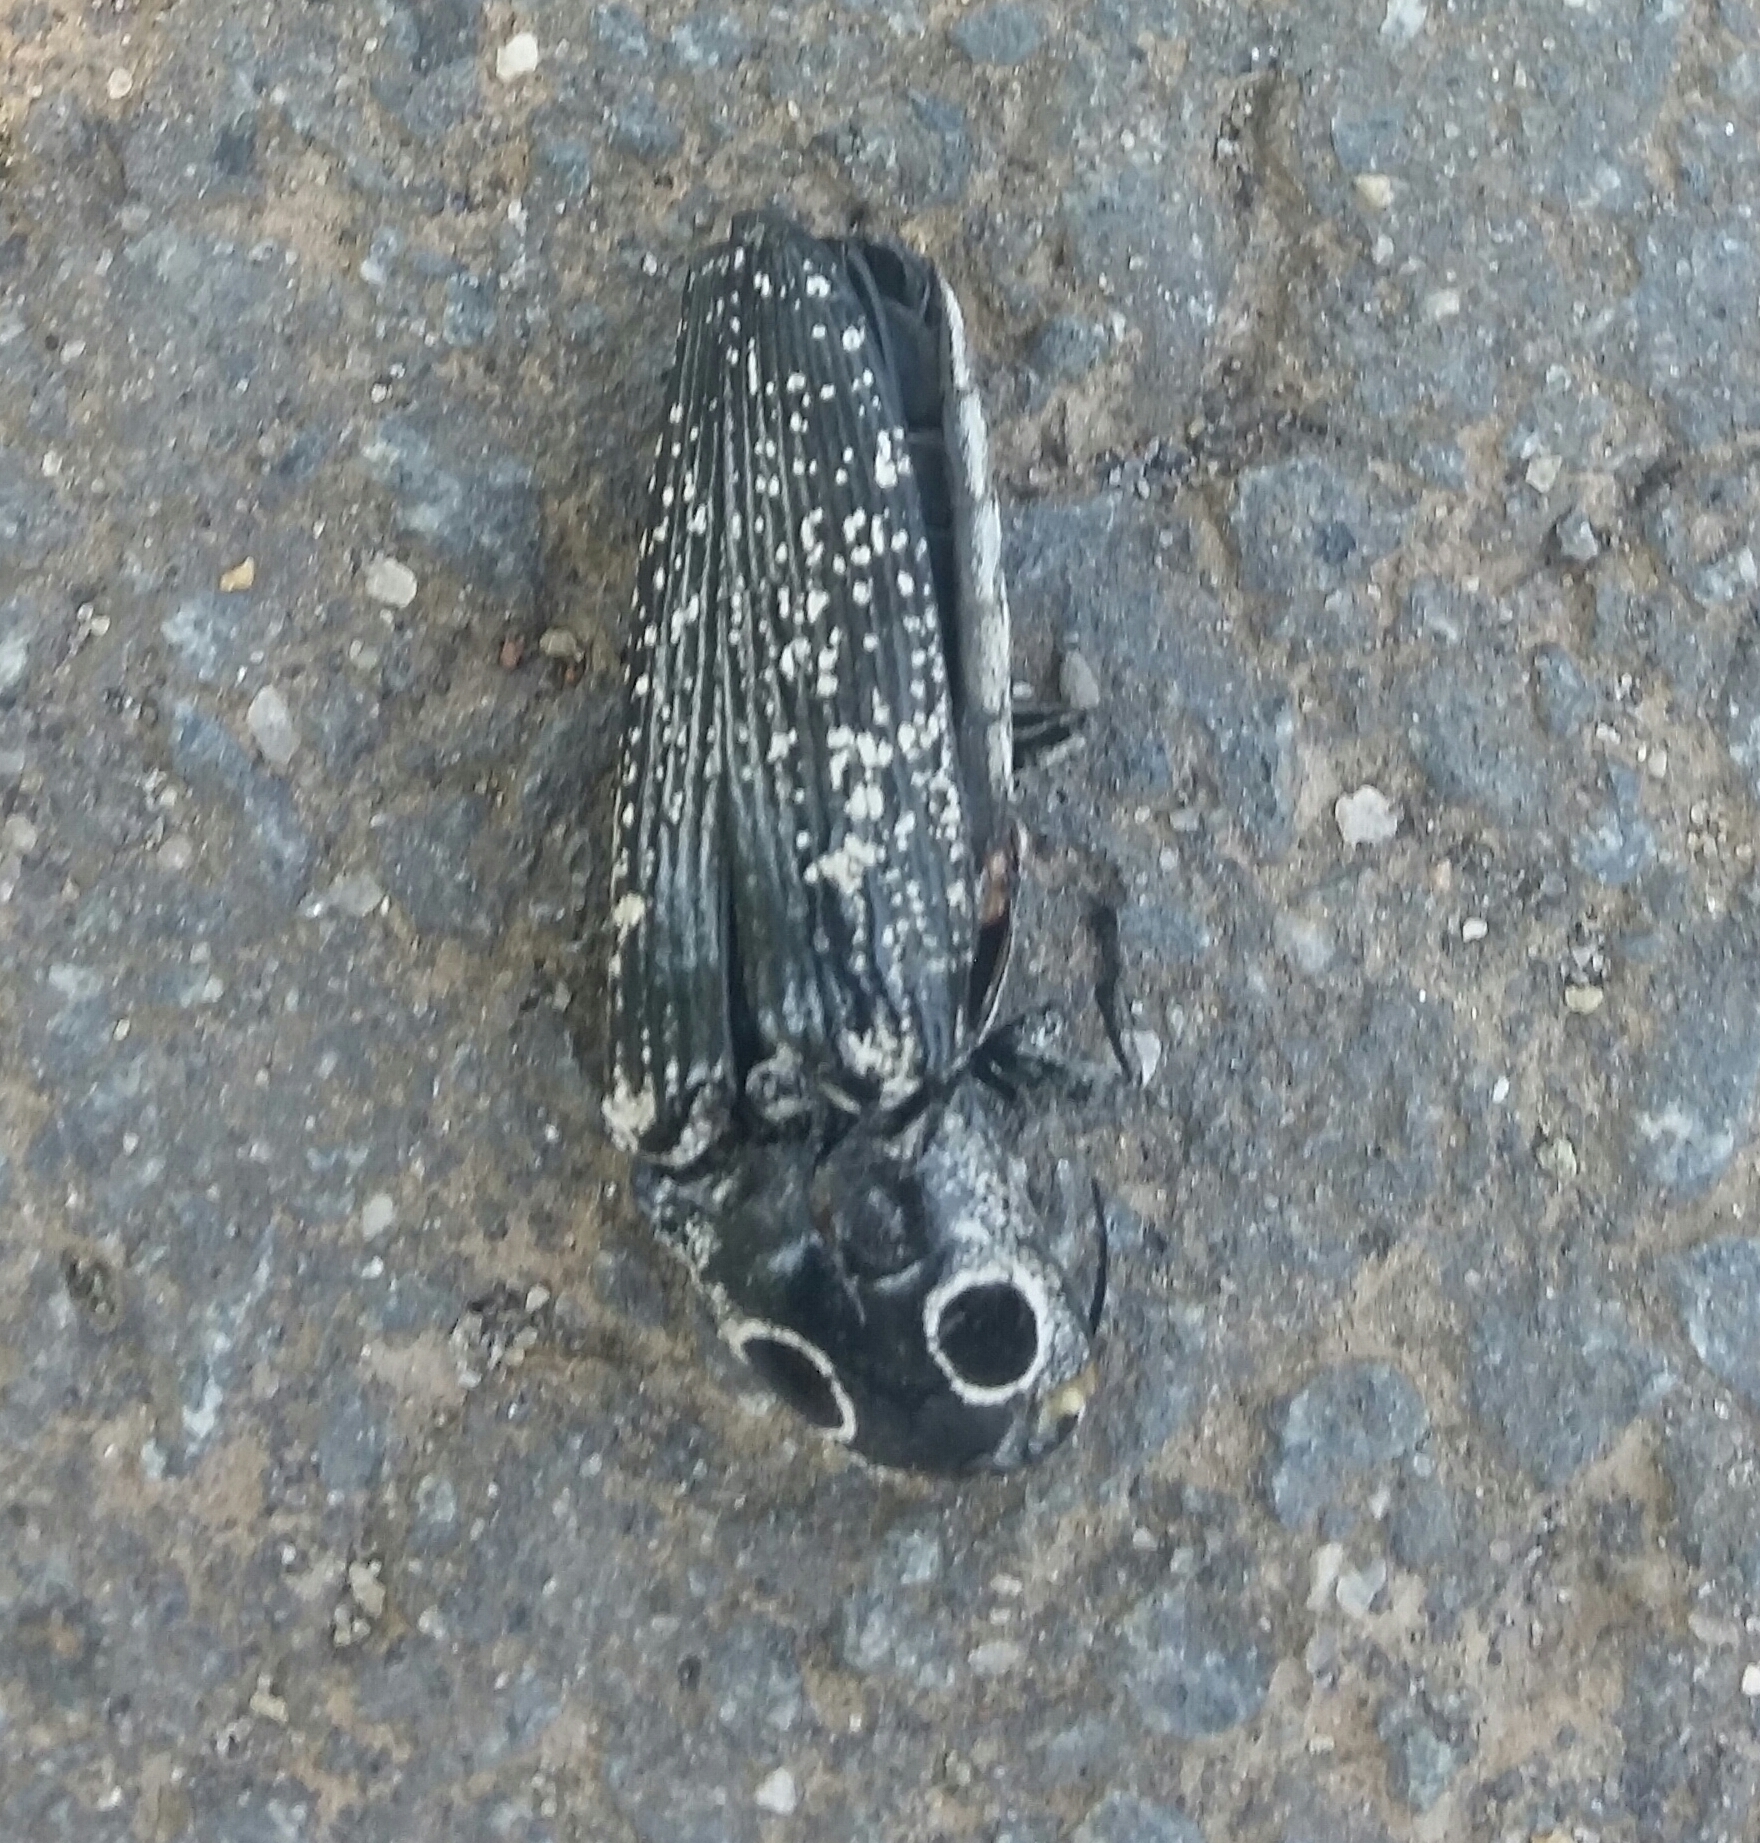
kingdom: Animalia
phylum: Arthropoda
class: Insecta
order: Coleoptera
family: Elateridae
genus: Alaus
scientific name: Alaus oculatus
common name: Eastern eyed click beetle
